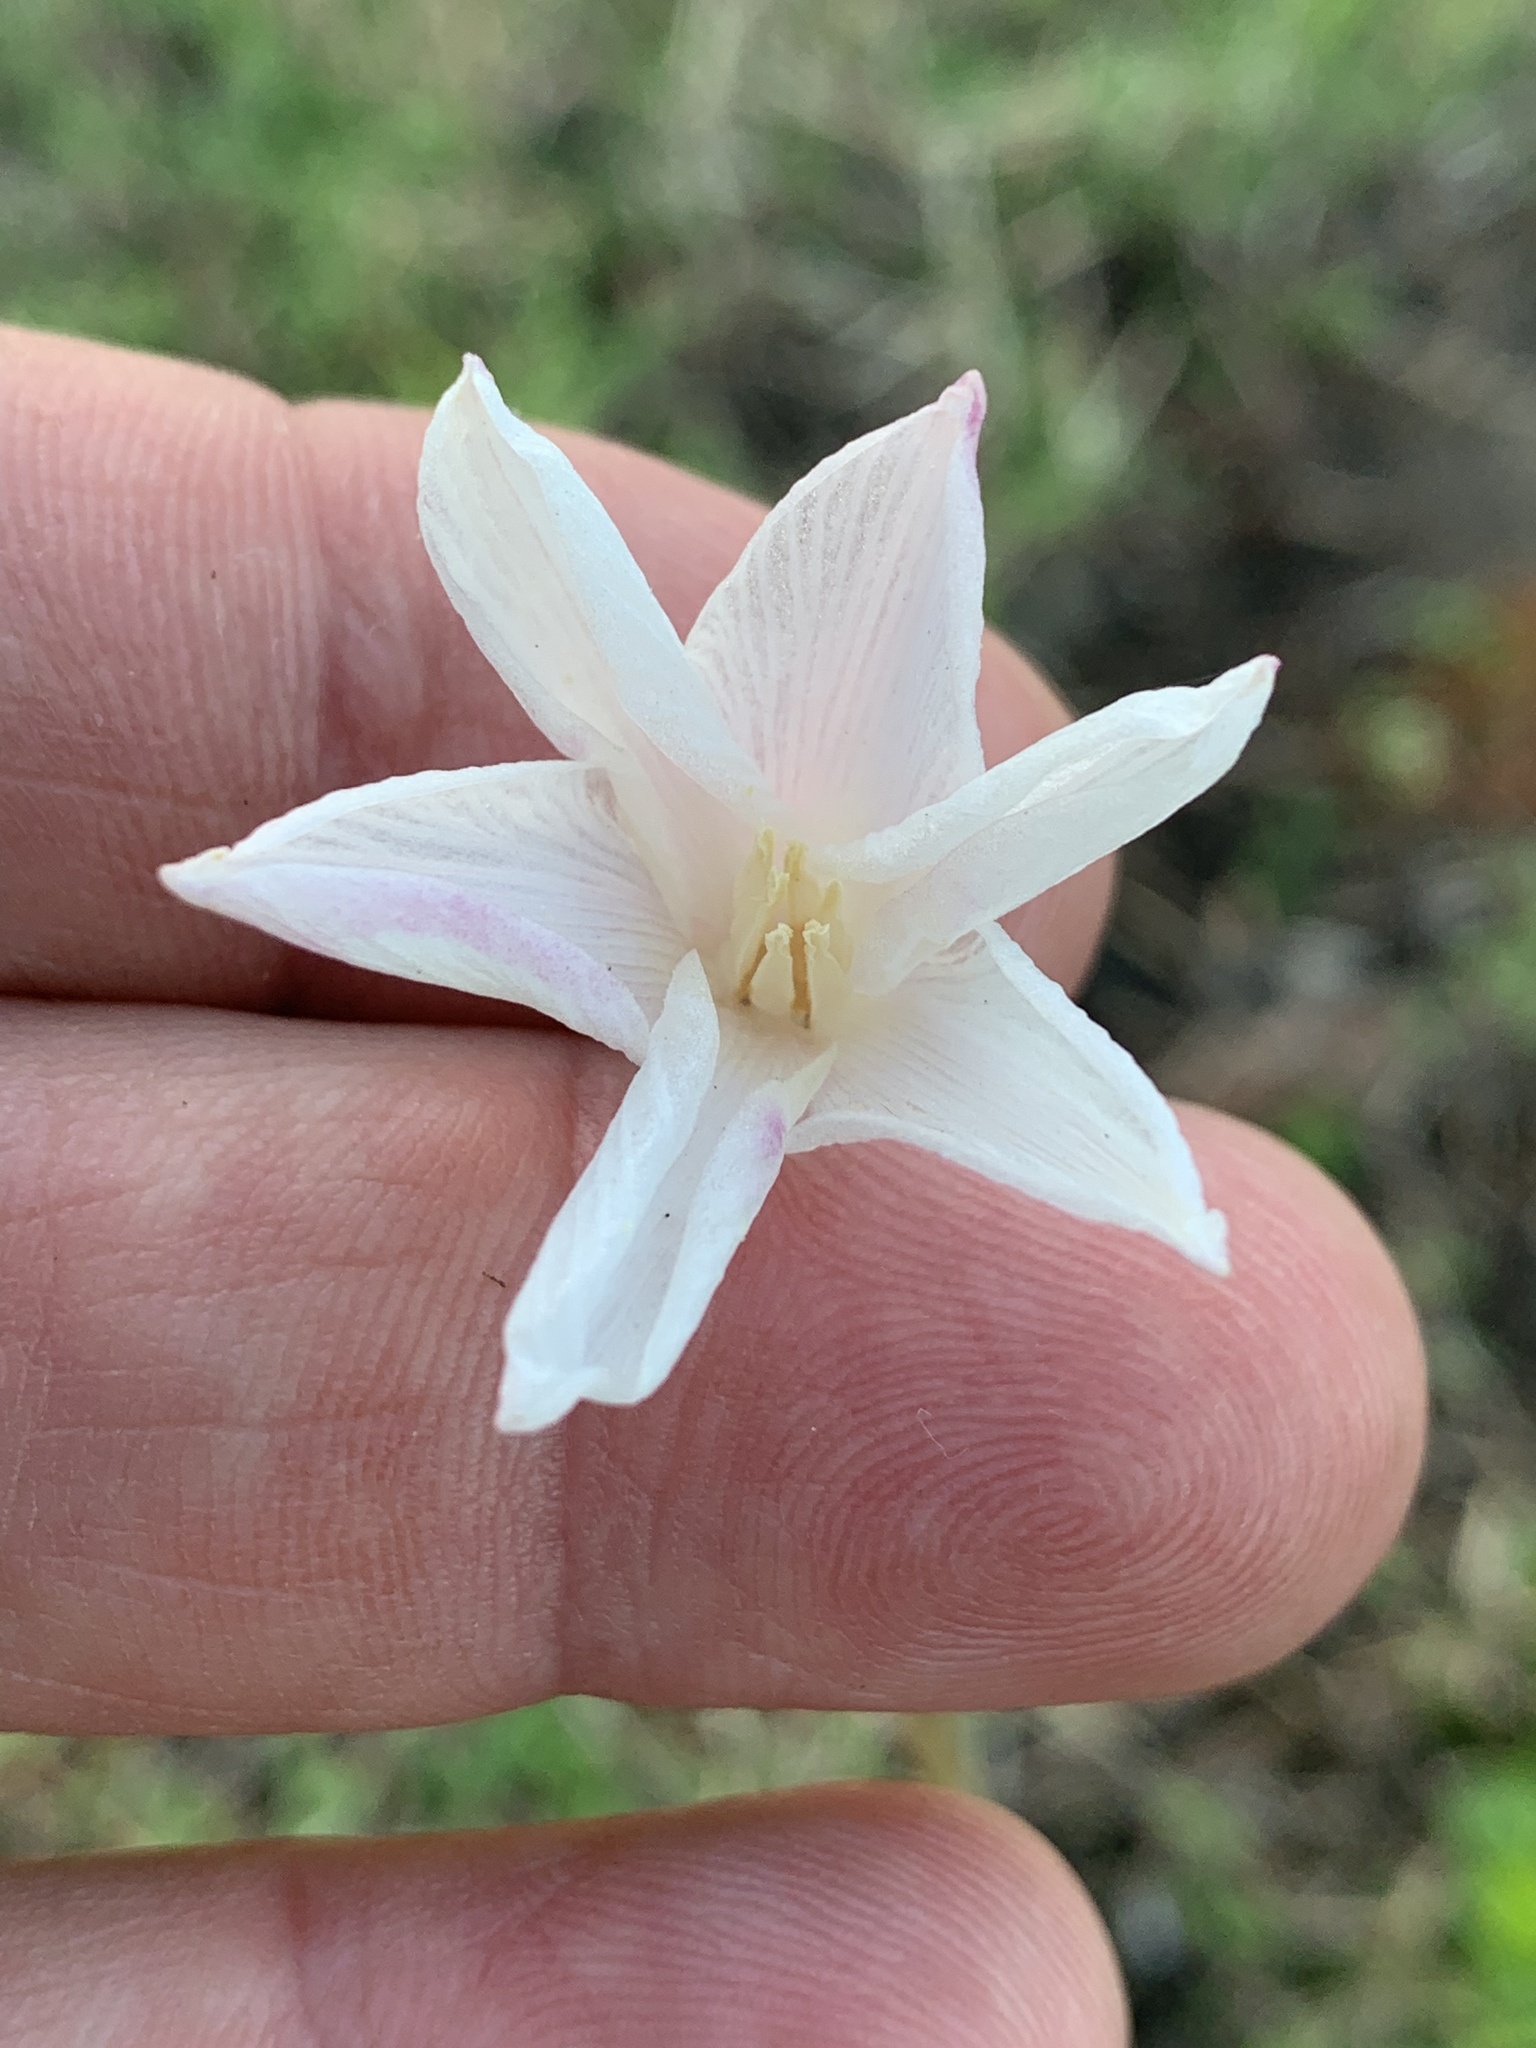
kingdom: Plantae
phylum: Tracheophyta
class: Liliopsida
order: Asparagales
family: Amaryllidaceae
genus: Zephyranthes
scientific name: Zephyranthes chlorosolen
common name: Evening rain-lily
